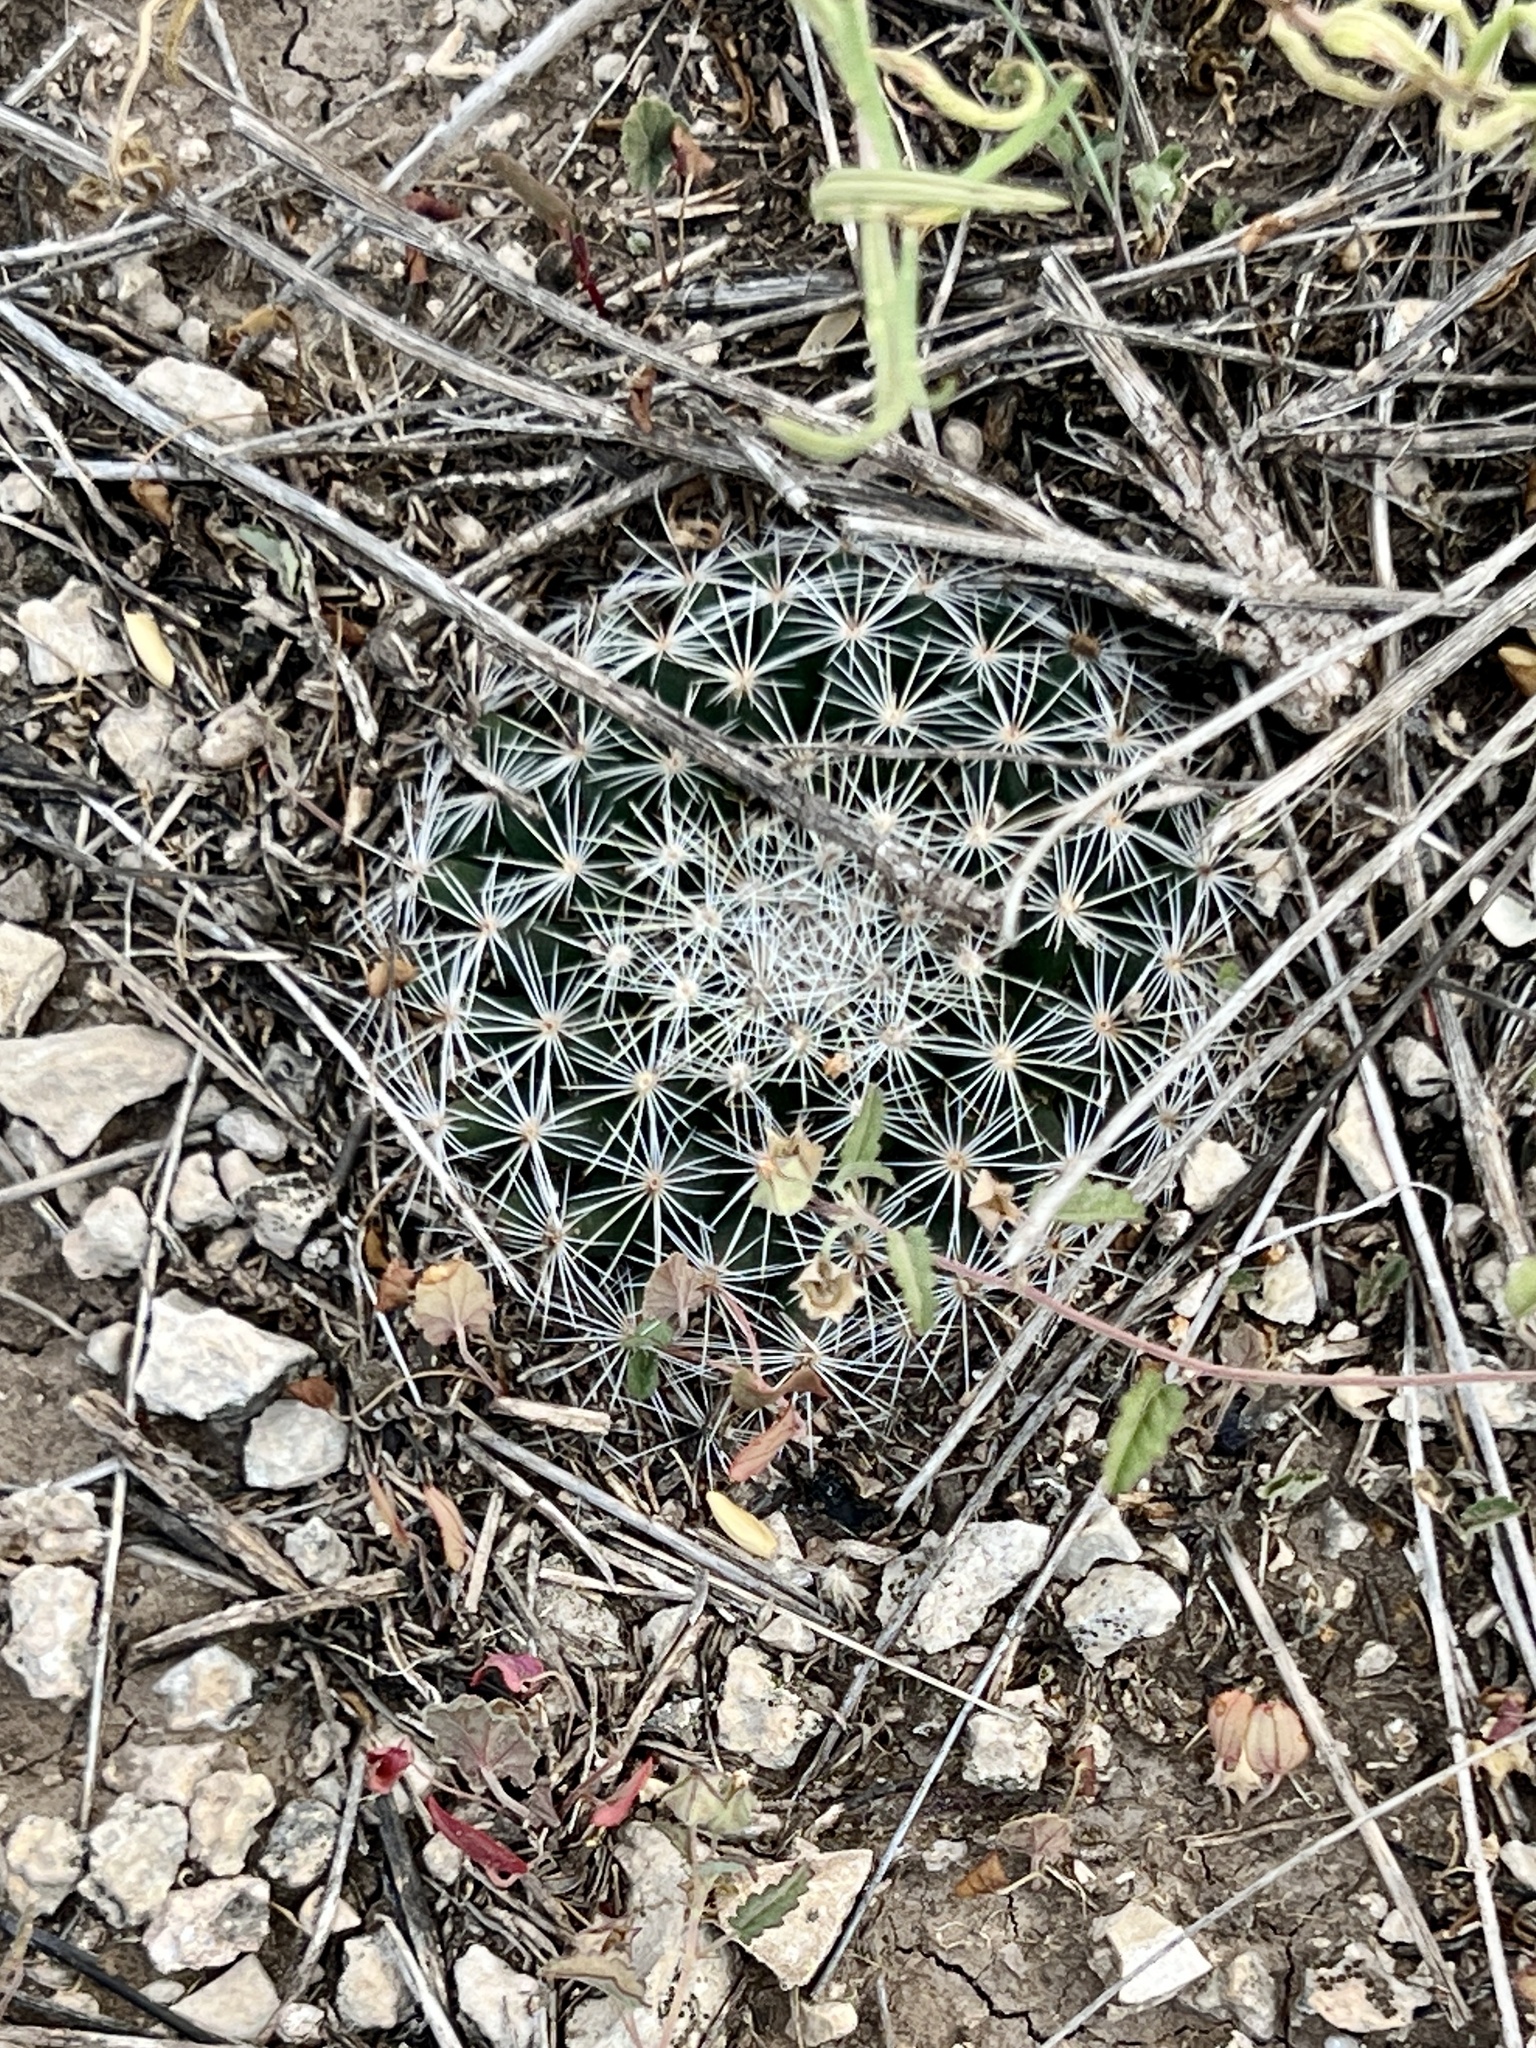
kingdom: Plantae
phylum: Tracheophyta
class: Magnoliopsida
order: Caryophyllales
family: Cactaceae
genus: Mammillaria
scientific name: Mammillaria heyderi
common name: Little nipple cactus
